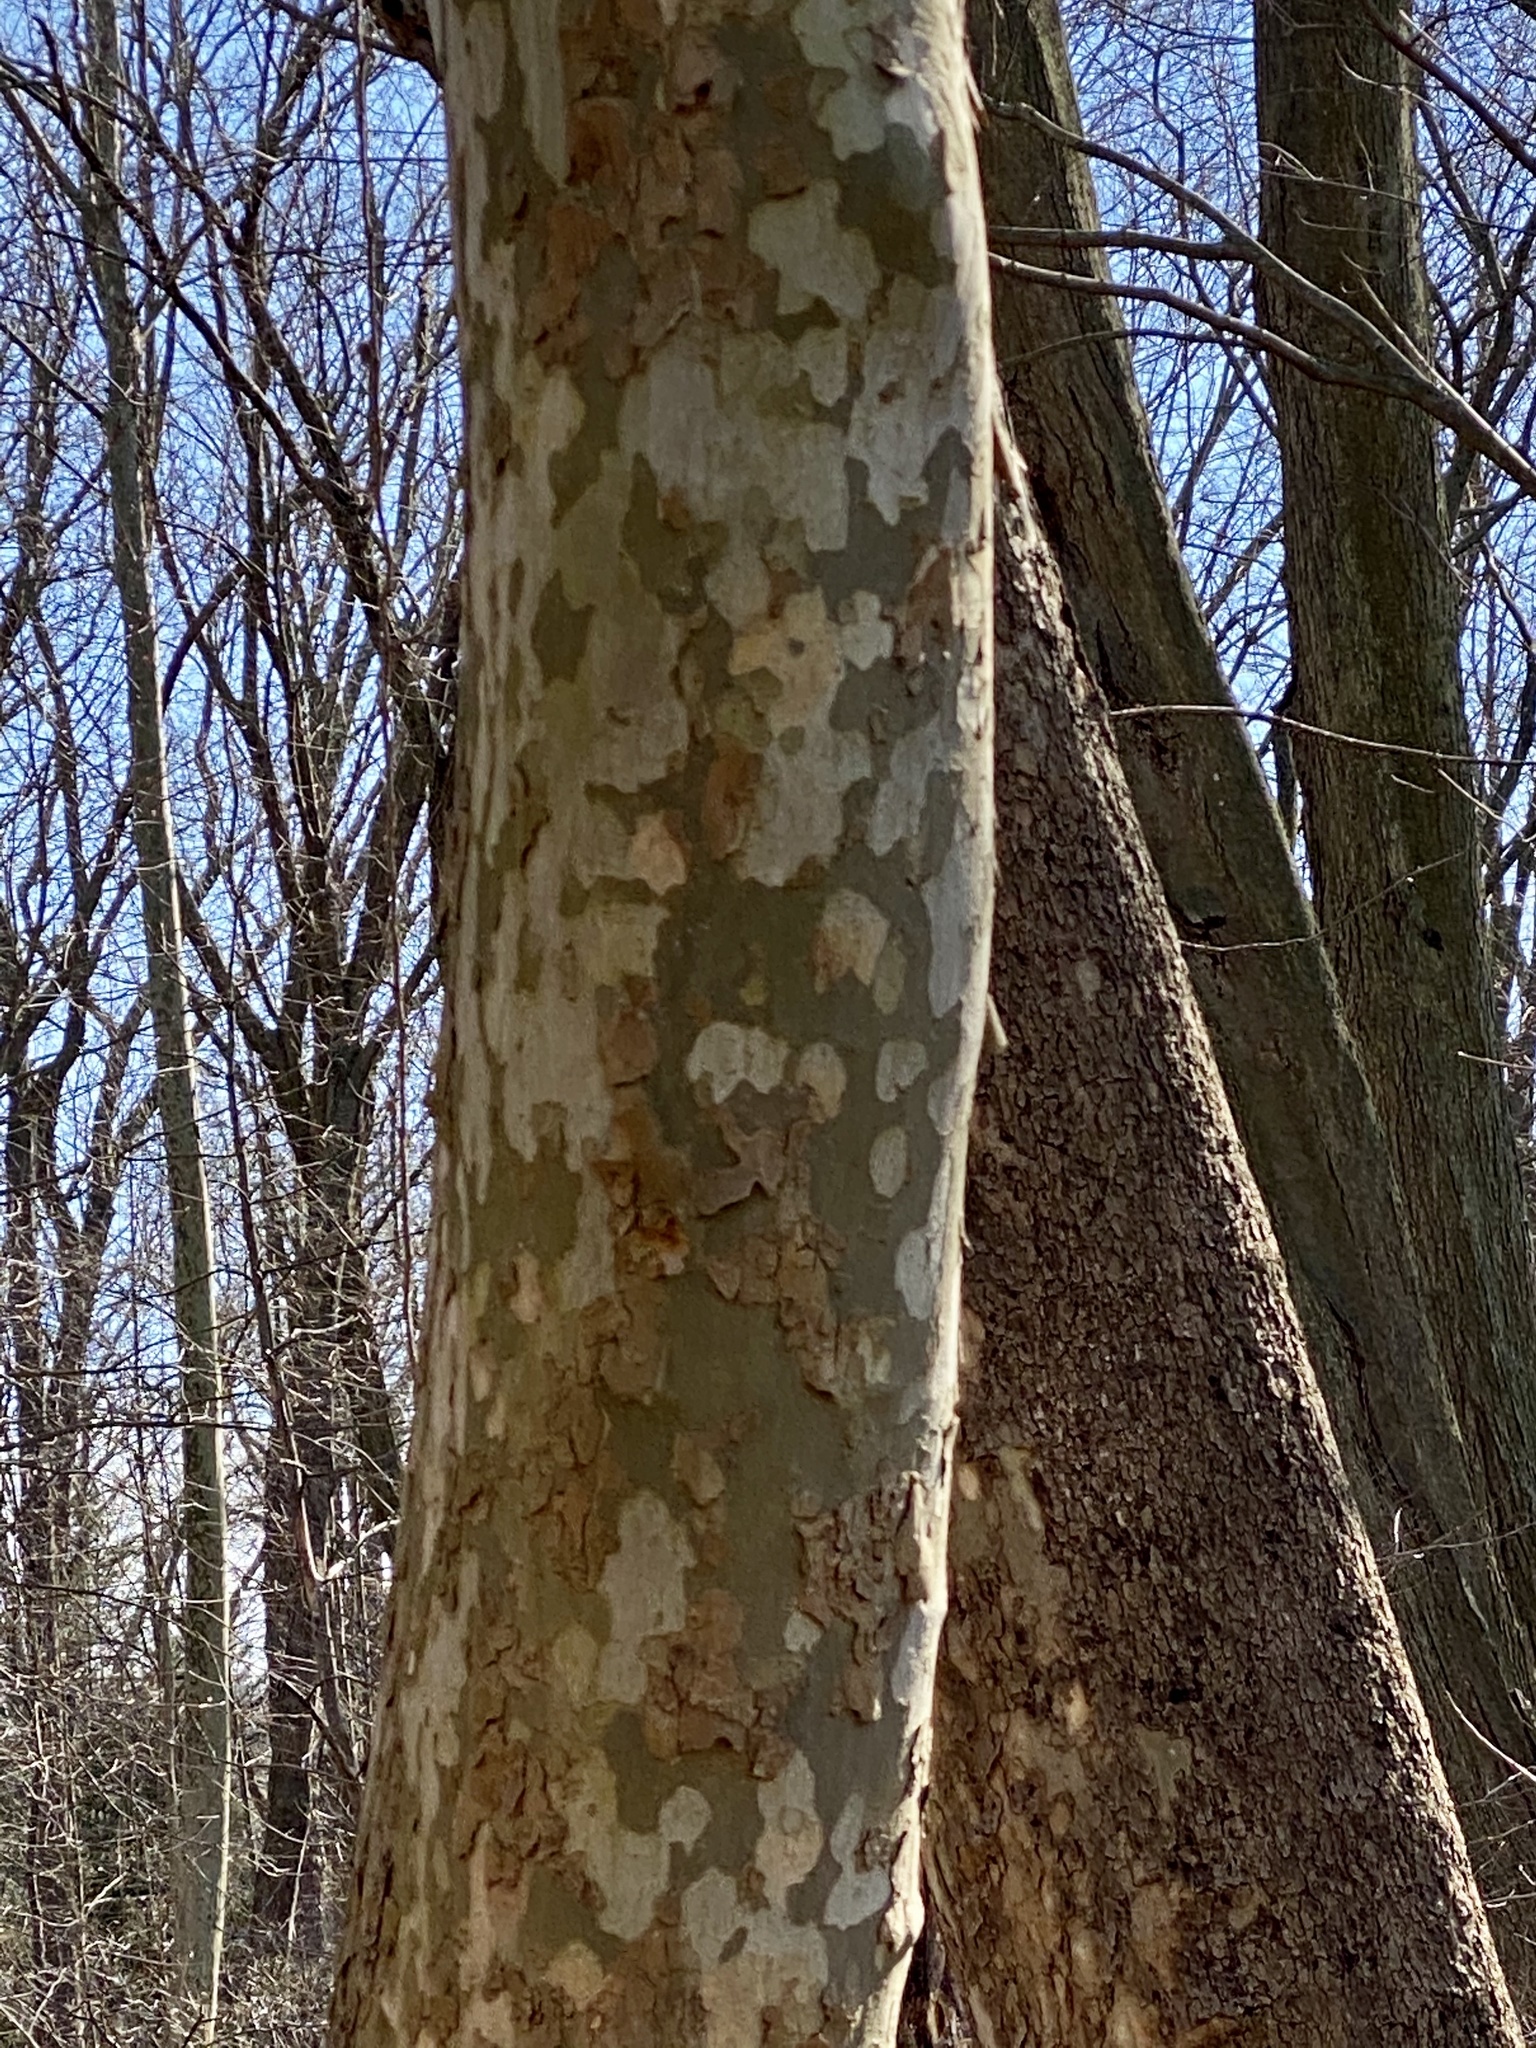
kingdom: Plantae
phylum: Tracheophyta
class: Magnoliopsida
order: Proteales
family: Platanaceae
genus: Platanus
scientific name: Platanus occidentalis
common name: American sycamore
